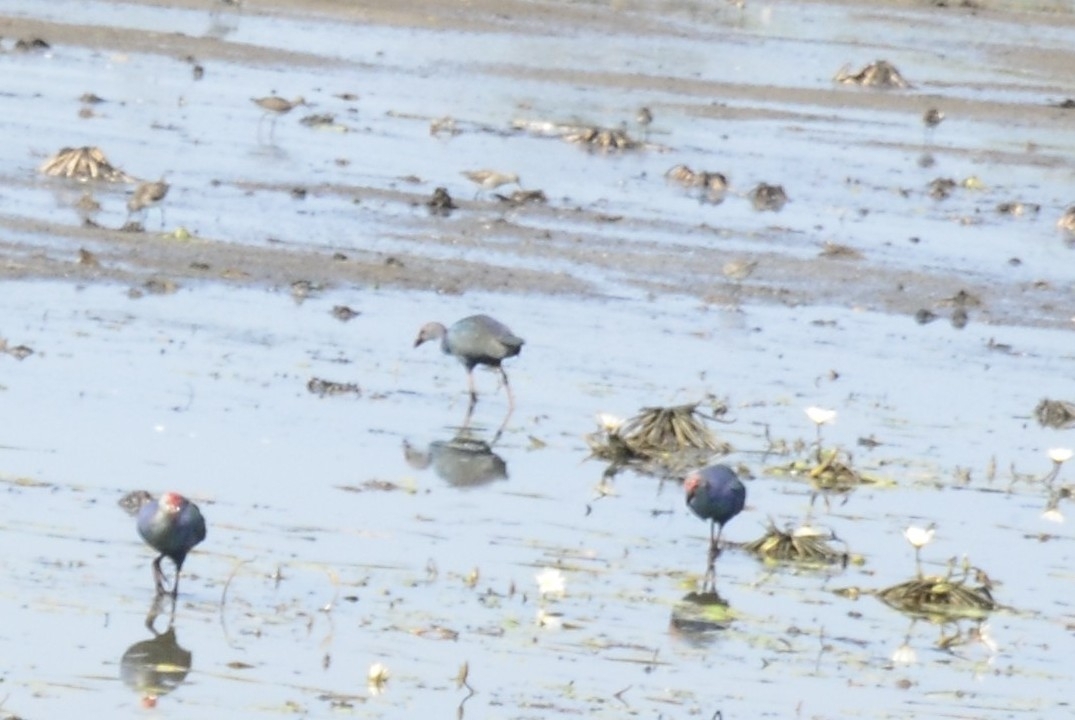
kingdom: Animalia
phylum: Chordata
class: Aves
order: Gruiformes
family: Rallidae
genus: Porphyrio
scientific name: Porphyrio porphyrio
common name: Purple swamphen
